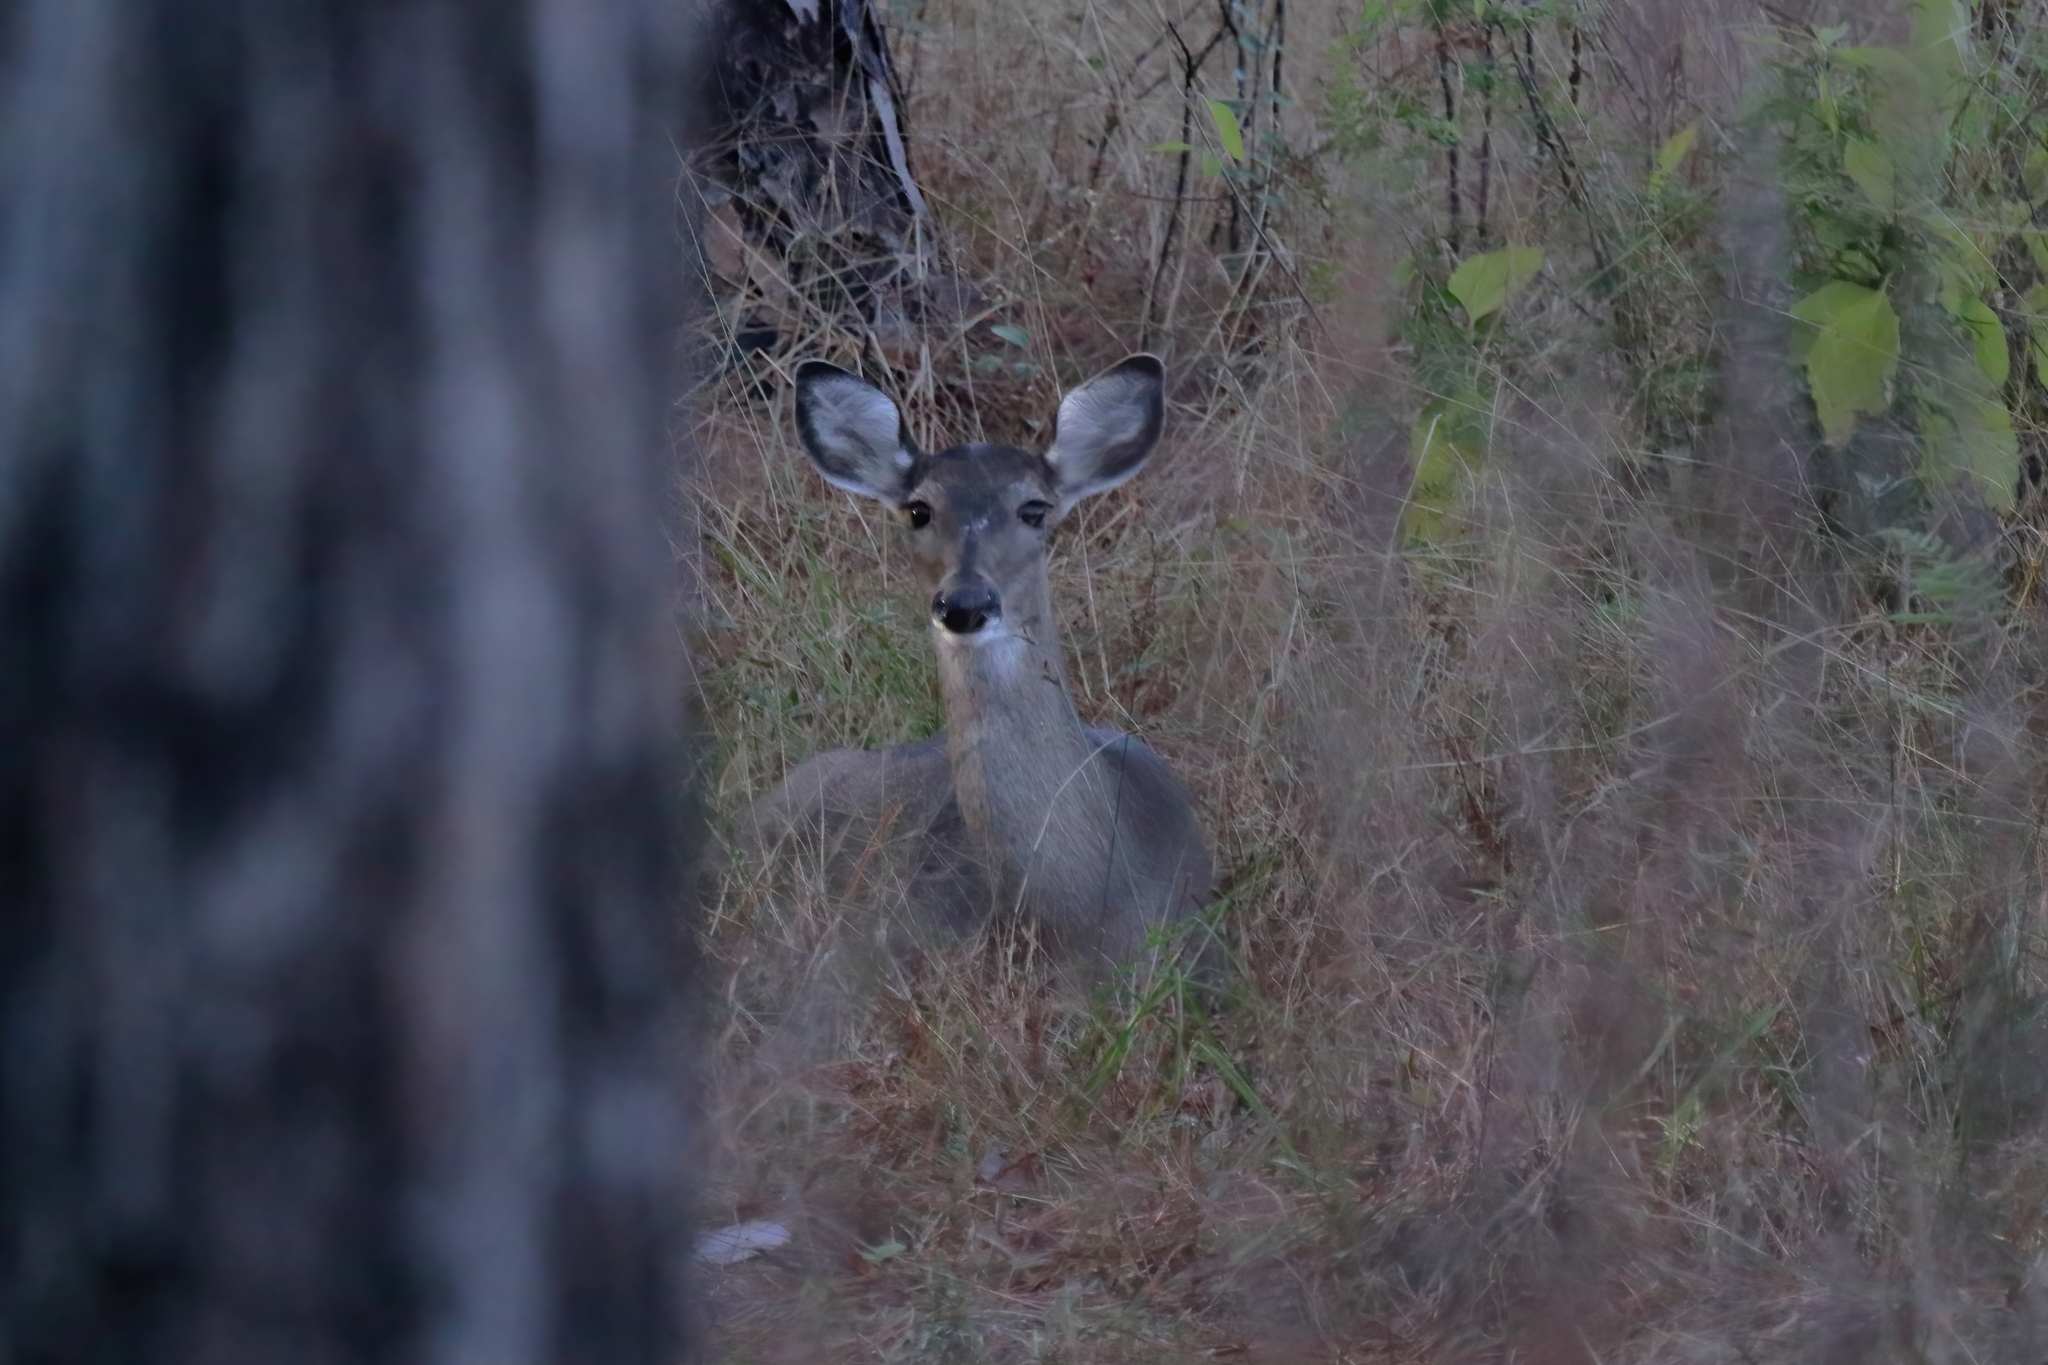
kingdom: Animalia
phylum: Chordata
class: Mammalia
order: Artiodactyla
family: Cervidae
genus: Odocoileus
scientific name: Odocoileus virginianus
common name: White-tailed deer
